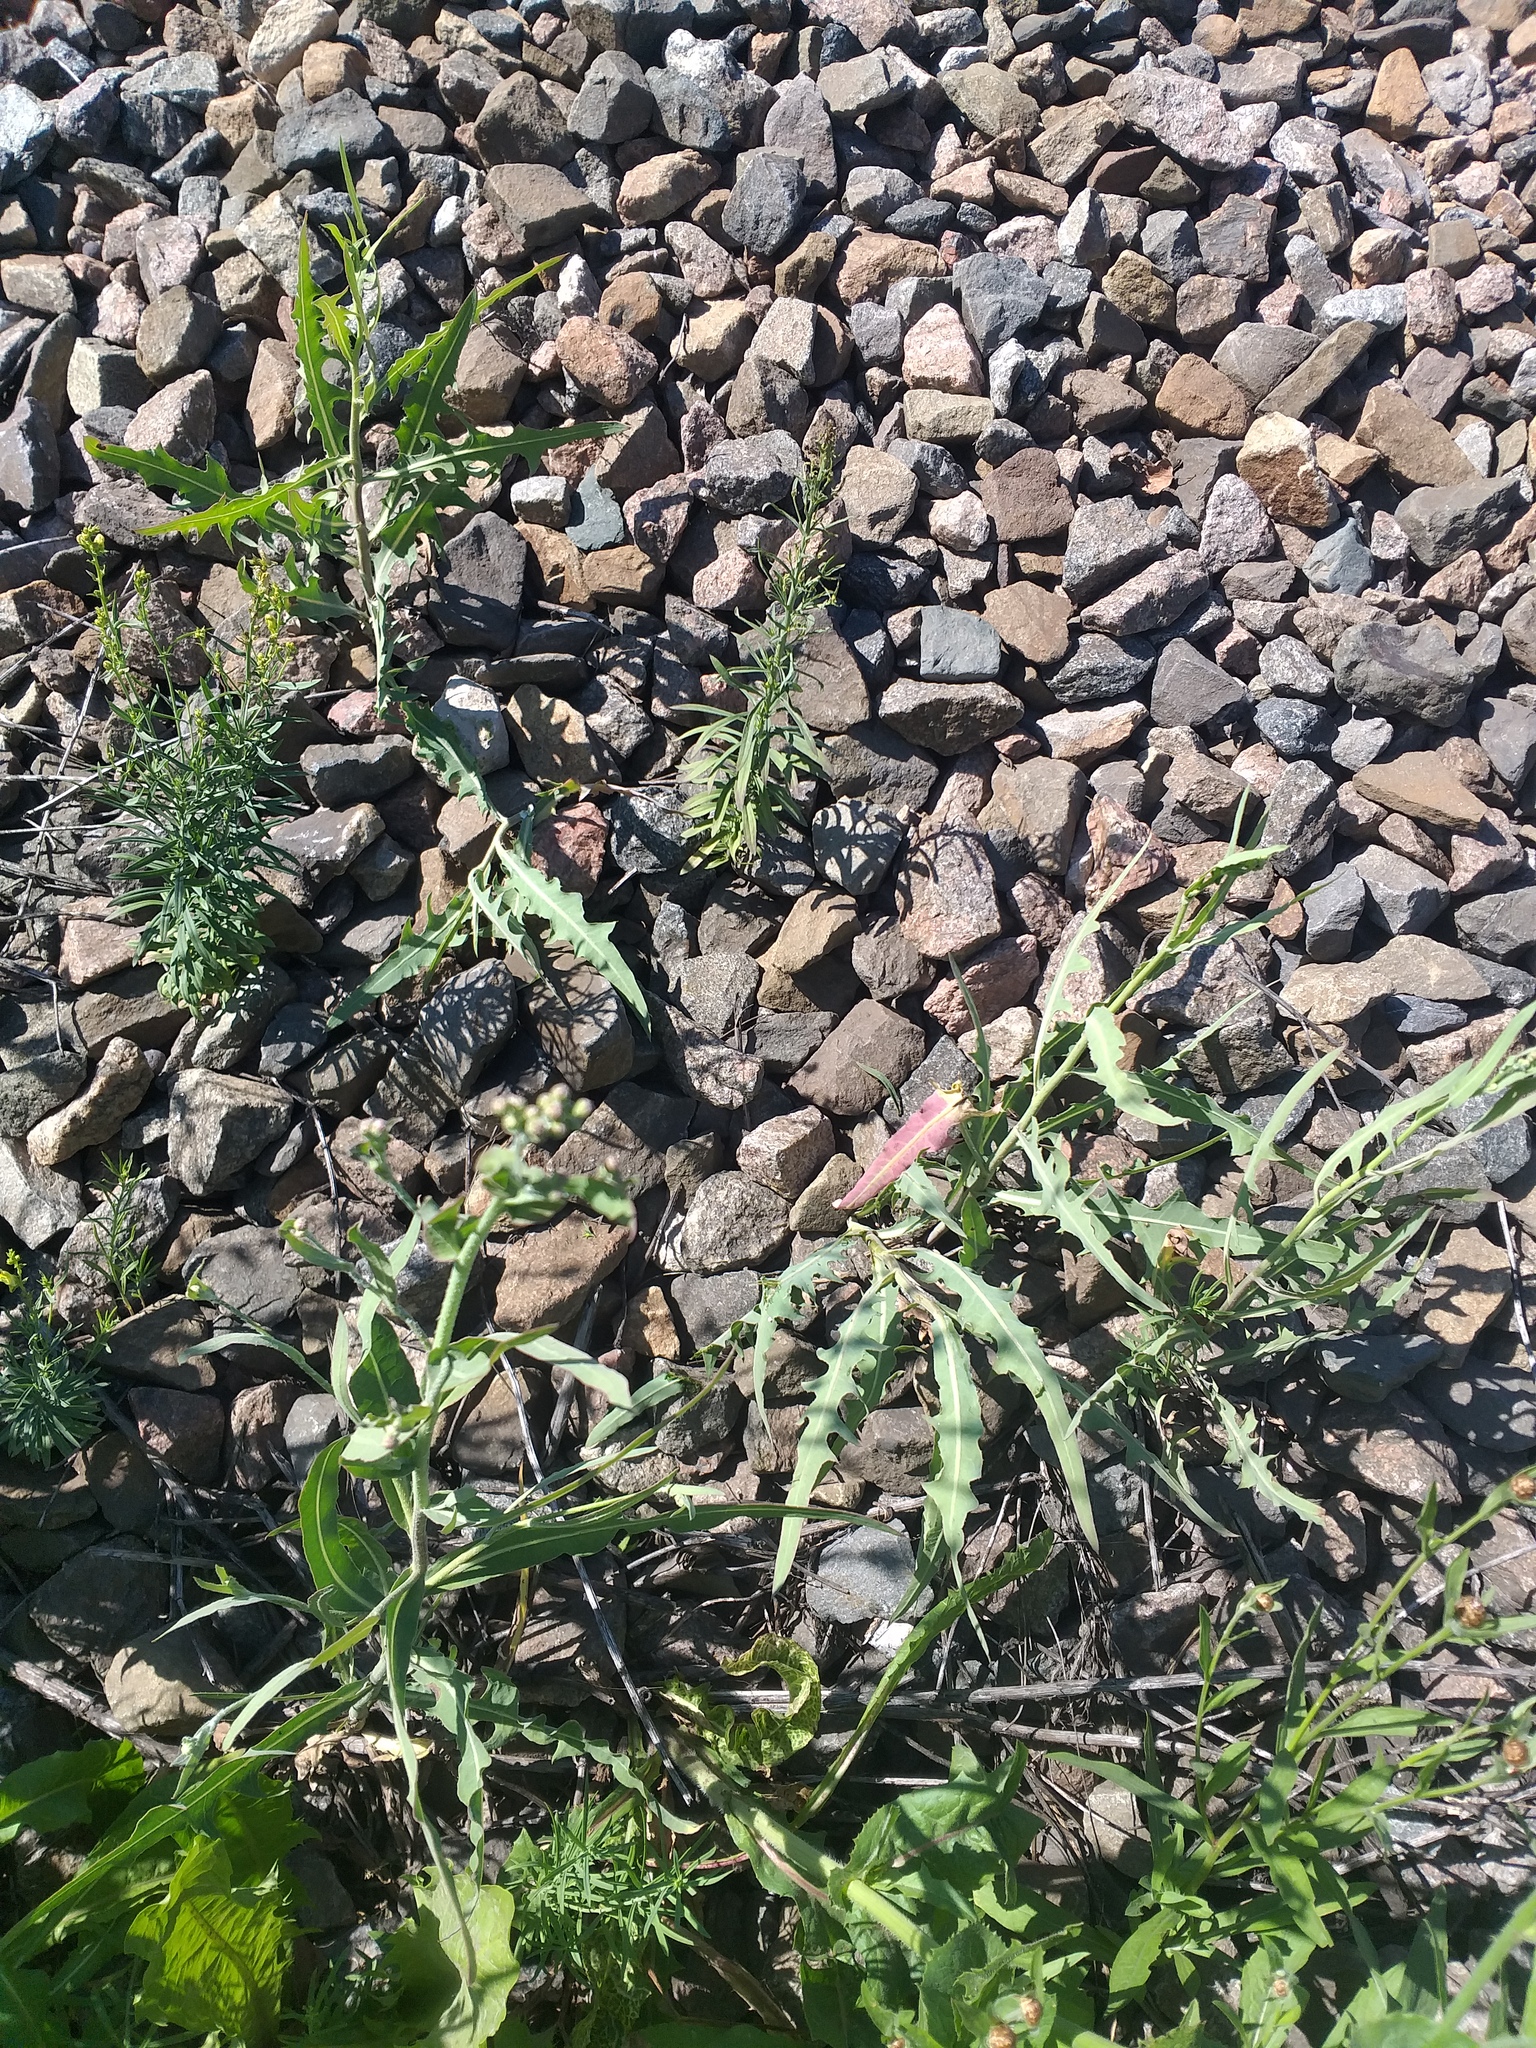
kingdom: Plantae
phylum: Tracheophyta
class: Magnoliopsida
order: Asterales
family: Asteraceae
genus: Lactuca
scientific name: Lactuca tatarica
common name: Blue lettuce
